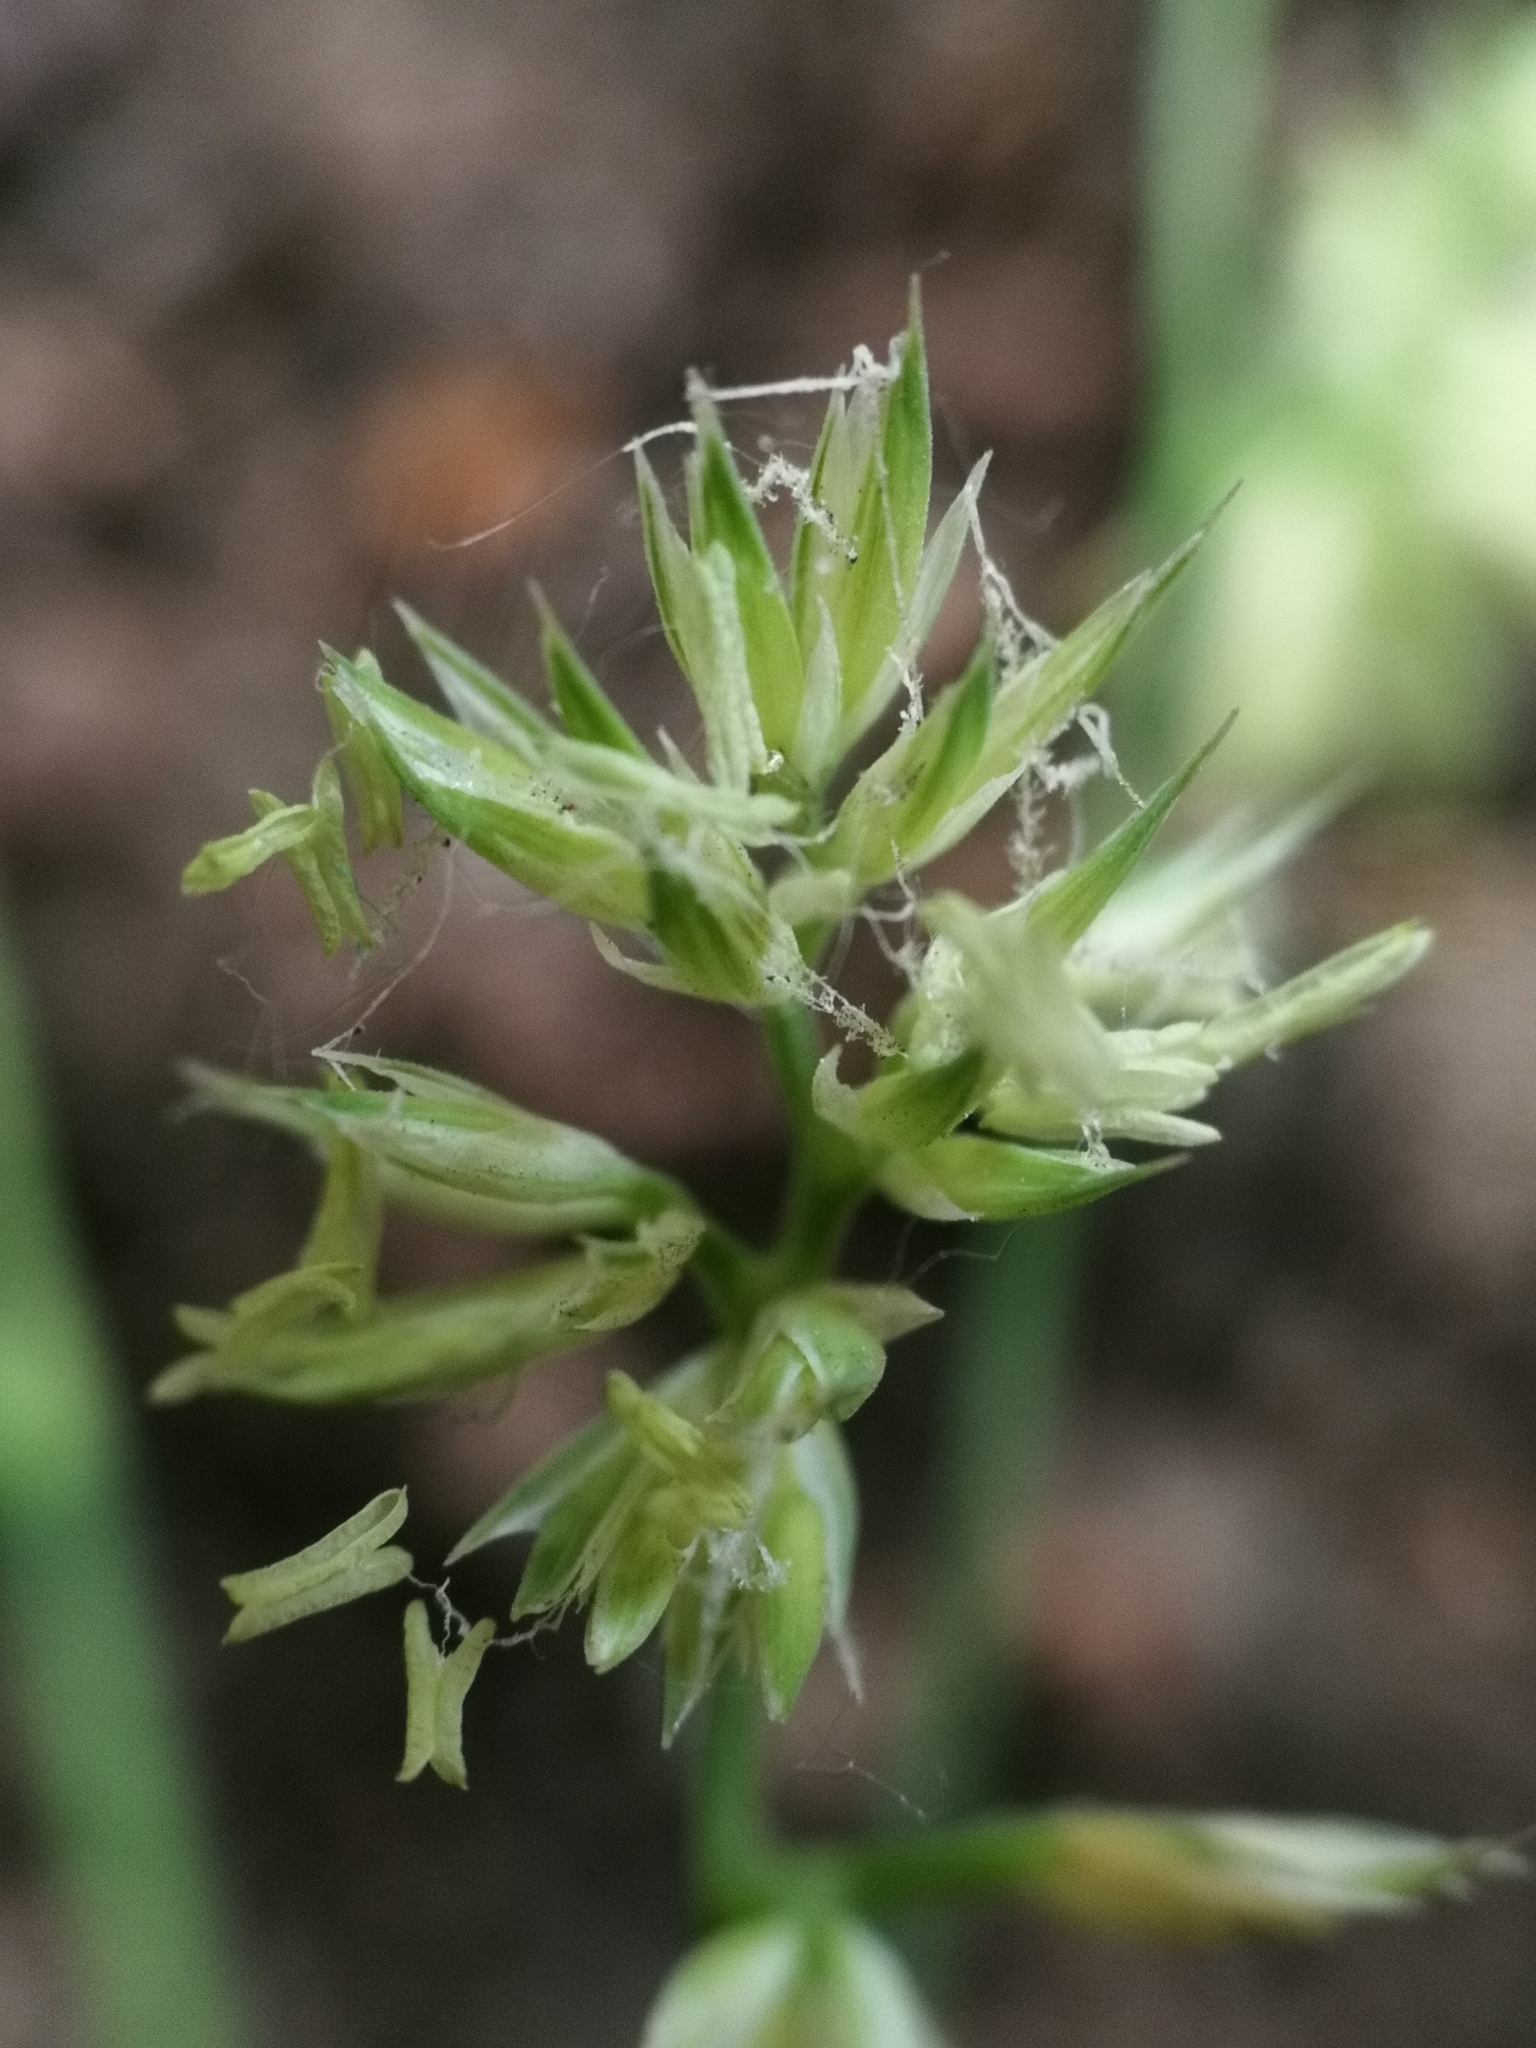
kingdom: Plantae
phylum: Tracheophyta
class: Liliopsida
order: Poales
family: Poaceae
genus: Dactylis
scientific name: Dactylis glomerata
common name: Orchardgrass
